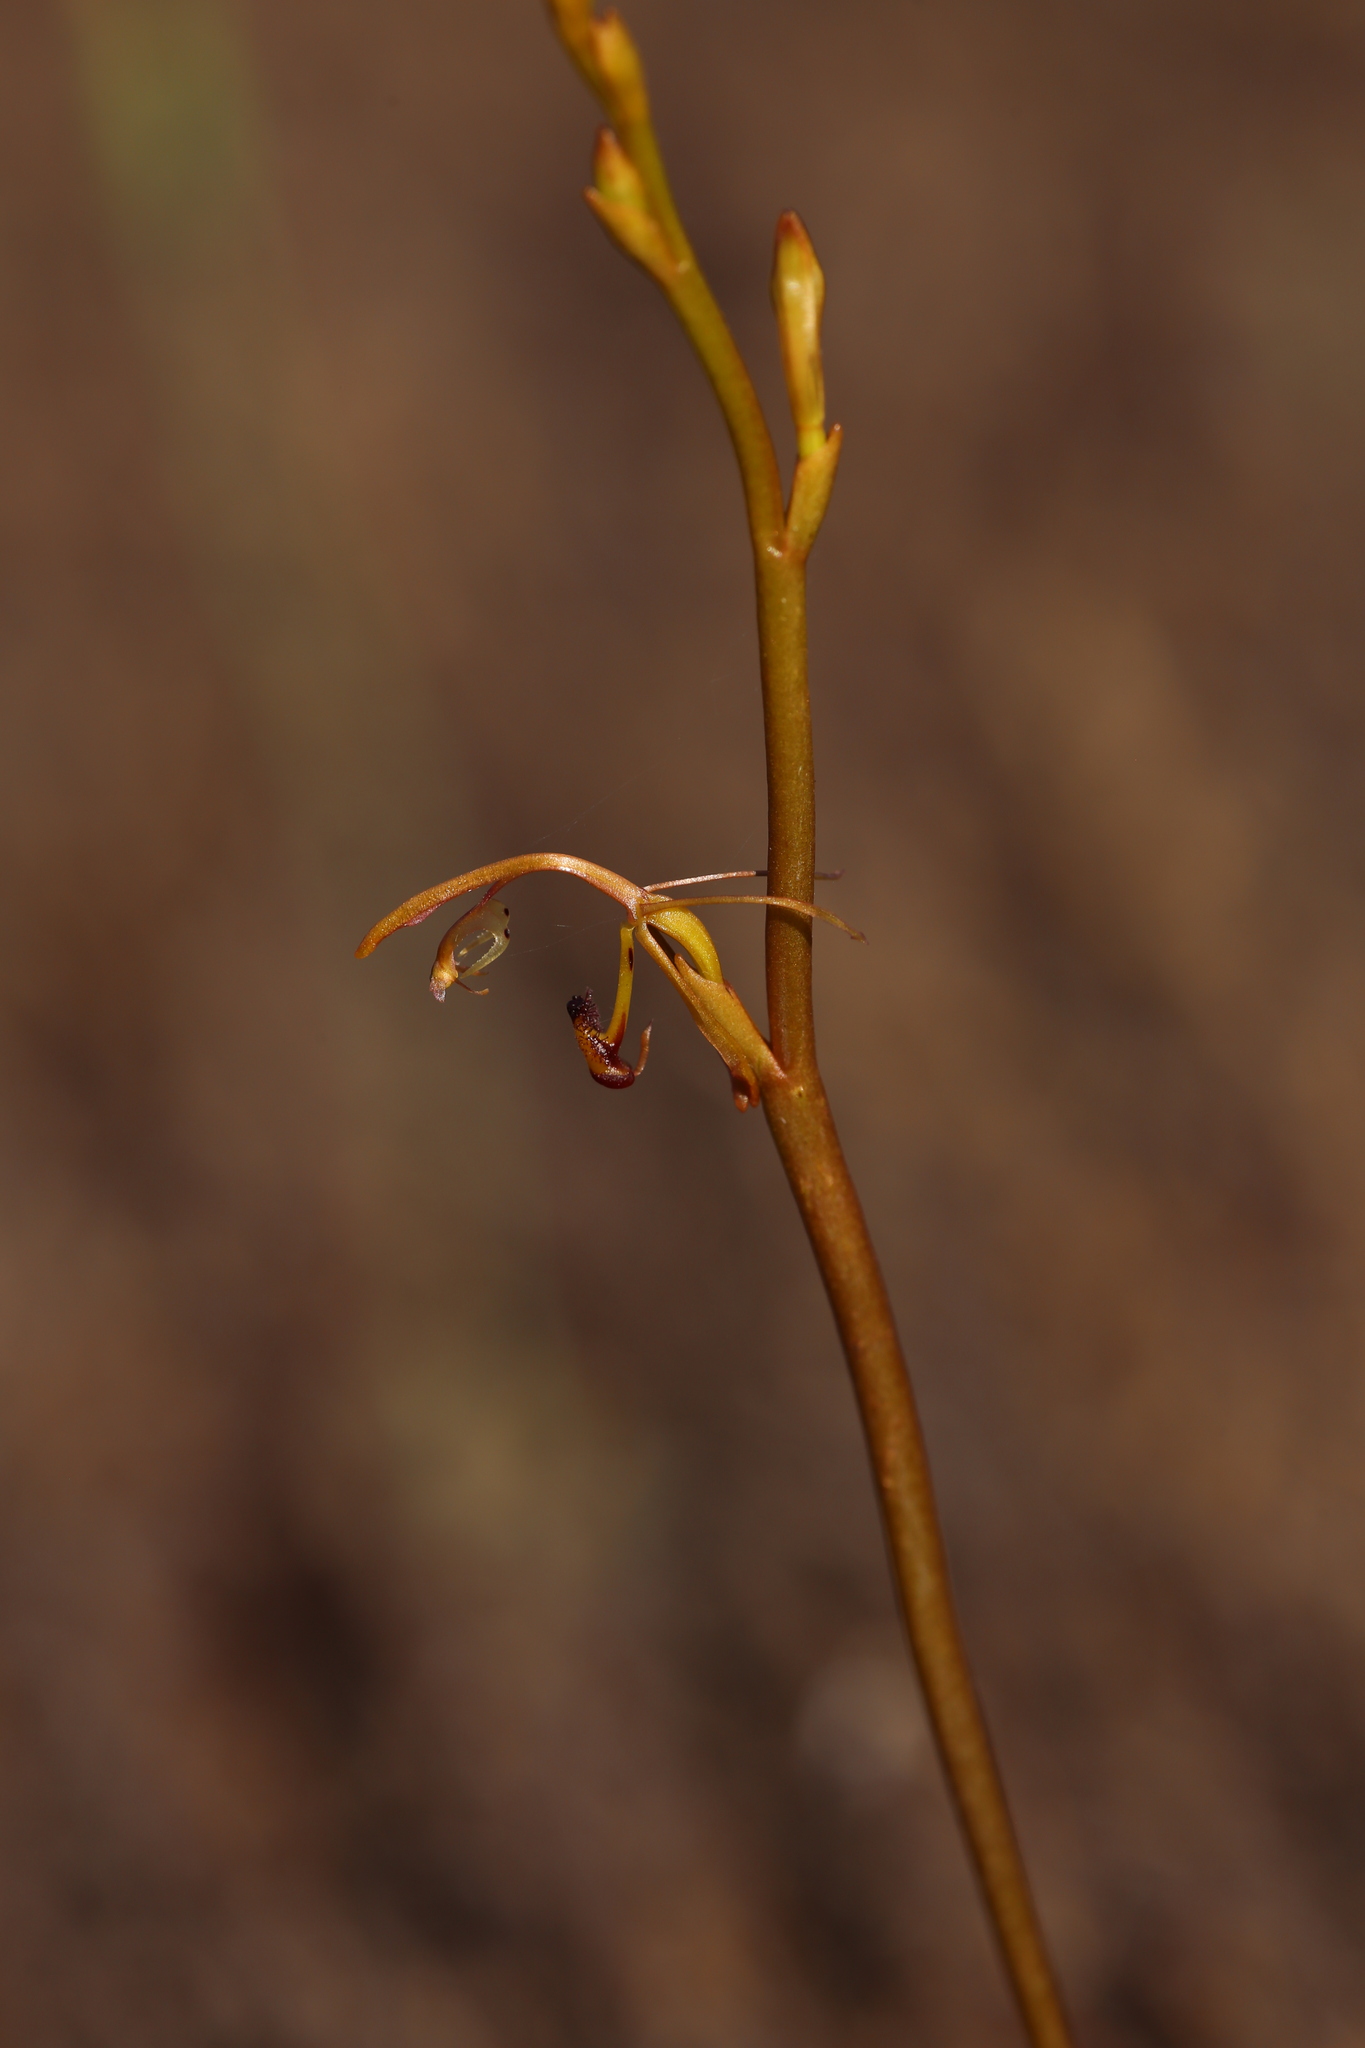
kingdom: Plantae
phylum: Tracheophyta
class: Liliopsida
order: Asparagales
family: Orchidaceae
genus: Spiculaea
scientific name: Spiculaea ciliata
